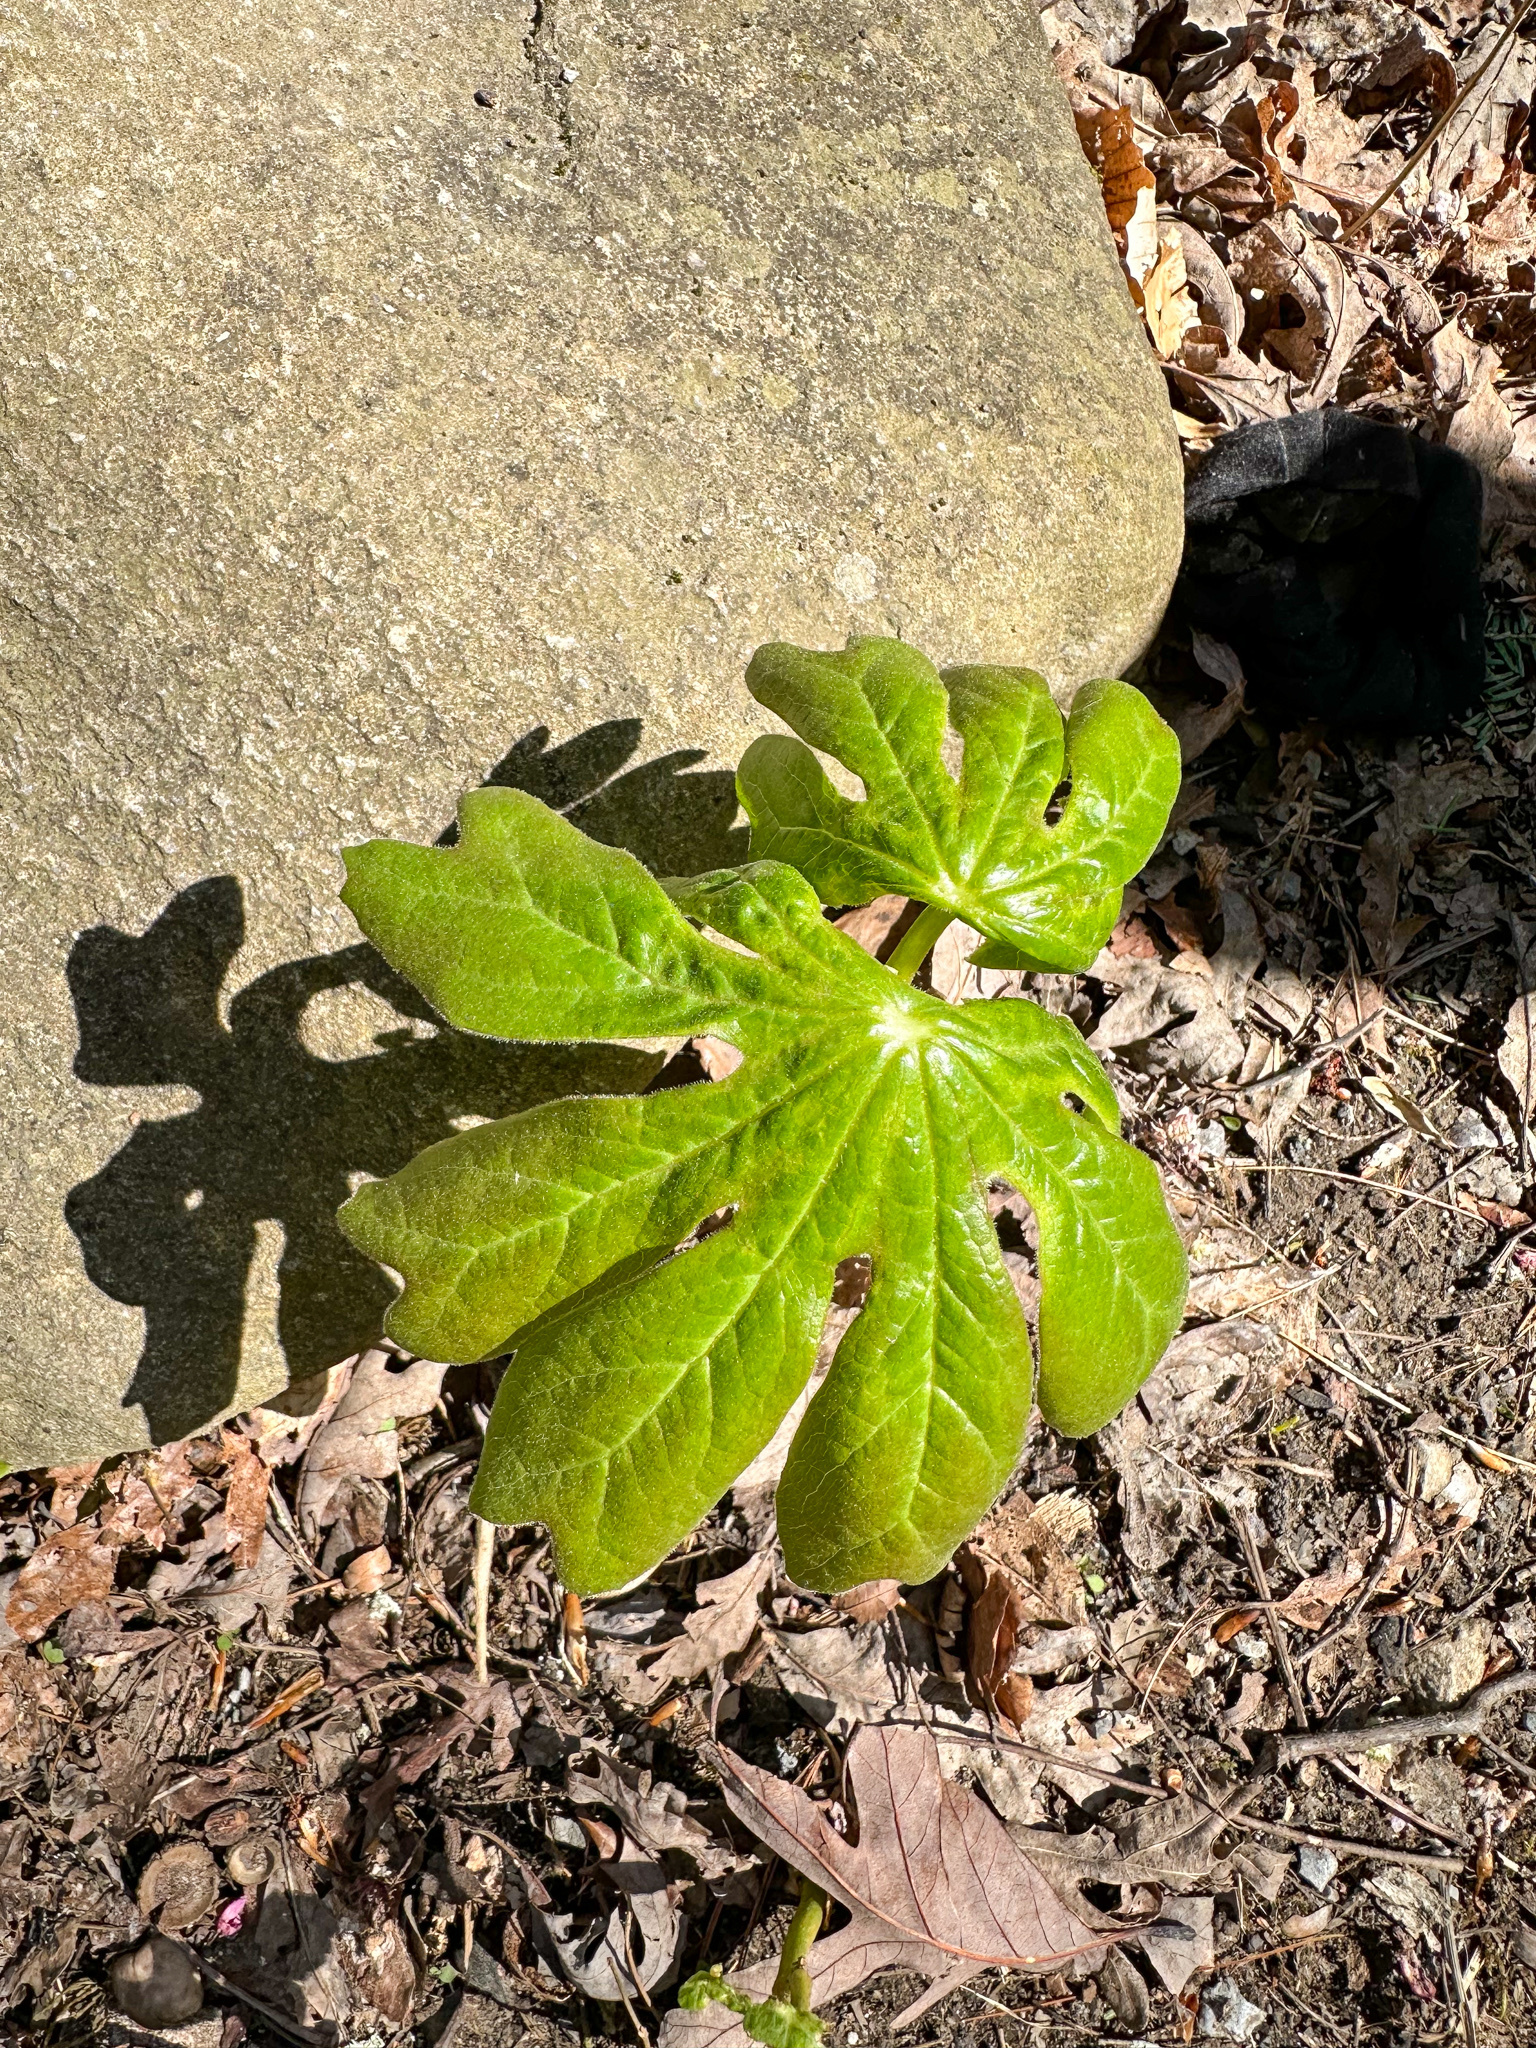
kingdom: Plantae
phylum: Tracheophyta
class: Magnoliopsida
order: Ranunculales
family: Berberidaceae
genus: Podophyllum
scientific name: Podophyllum peltatum
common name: Wild mandrake
